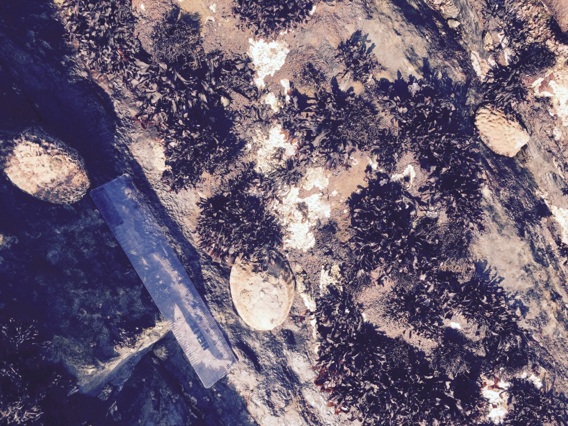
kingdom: Animalia
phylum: Mollusca
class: Gastropoda
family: Lottiidae
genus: Lottia
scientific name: Lottia gigantea
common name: Owl limpet
